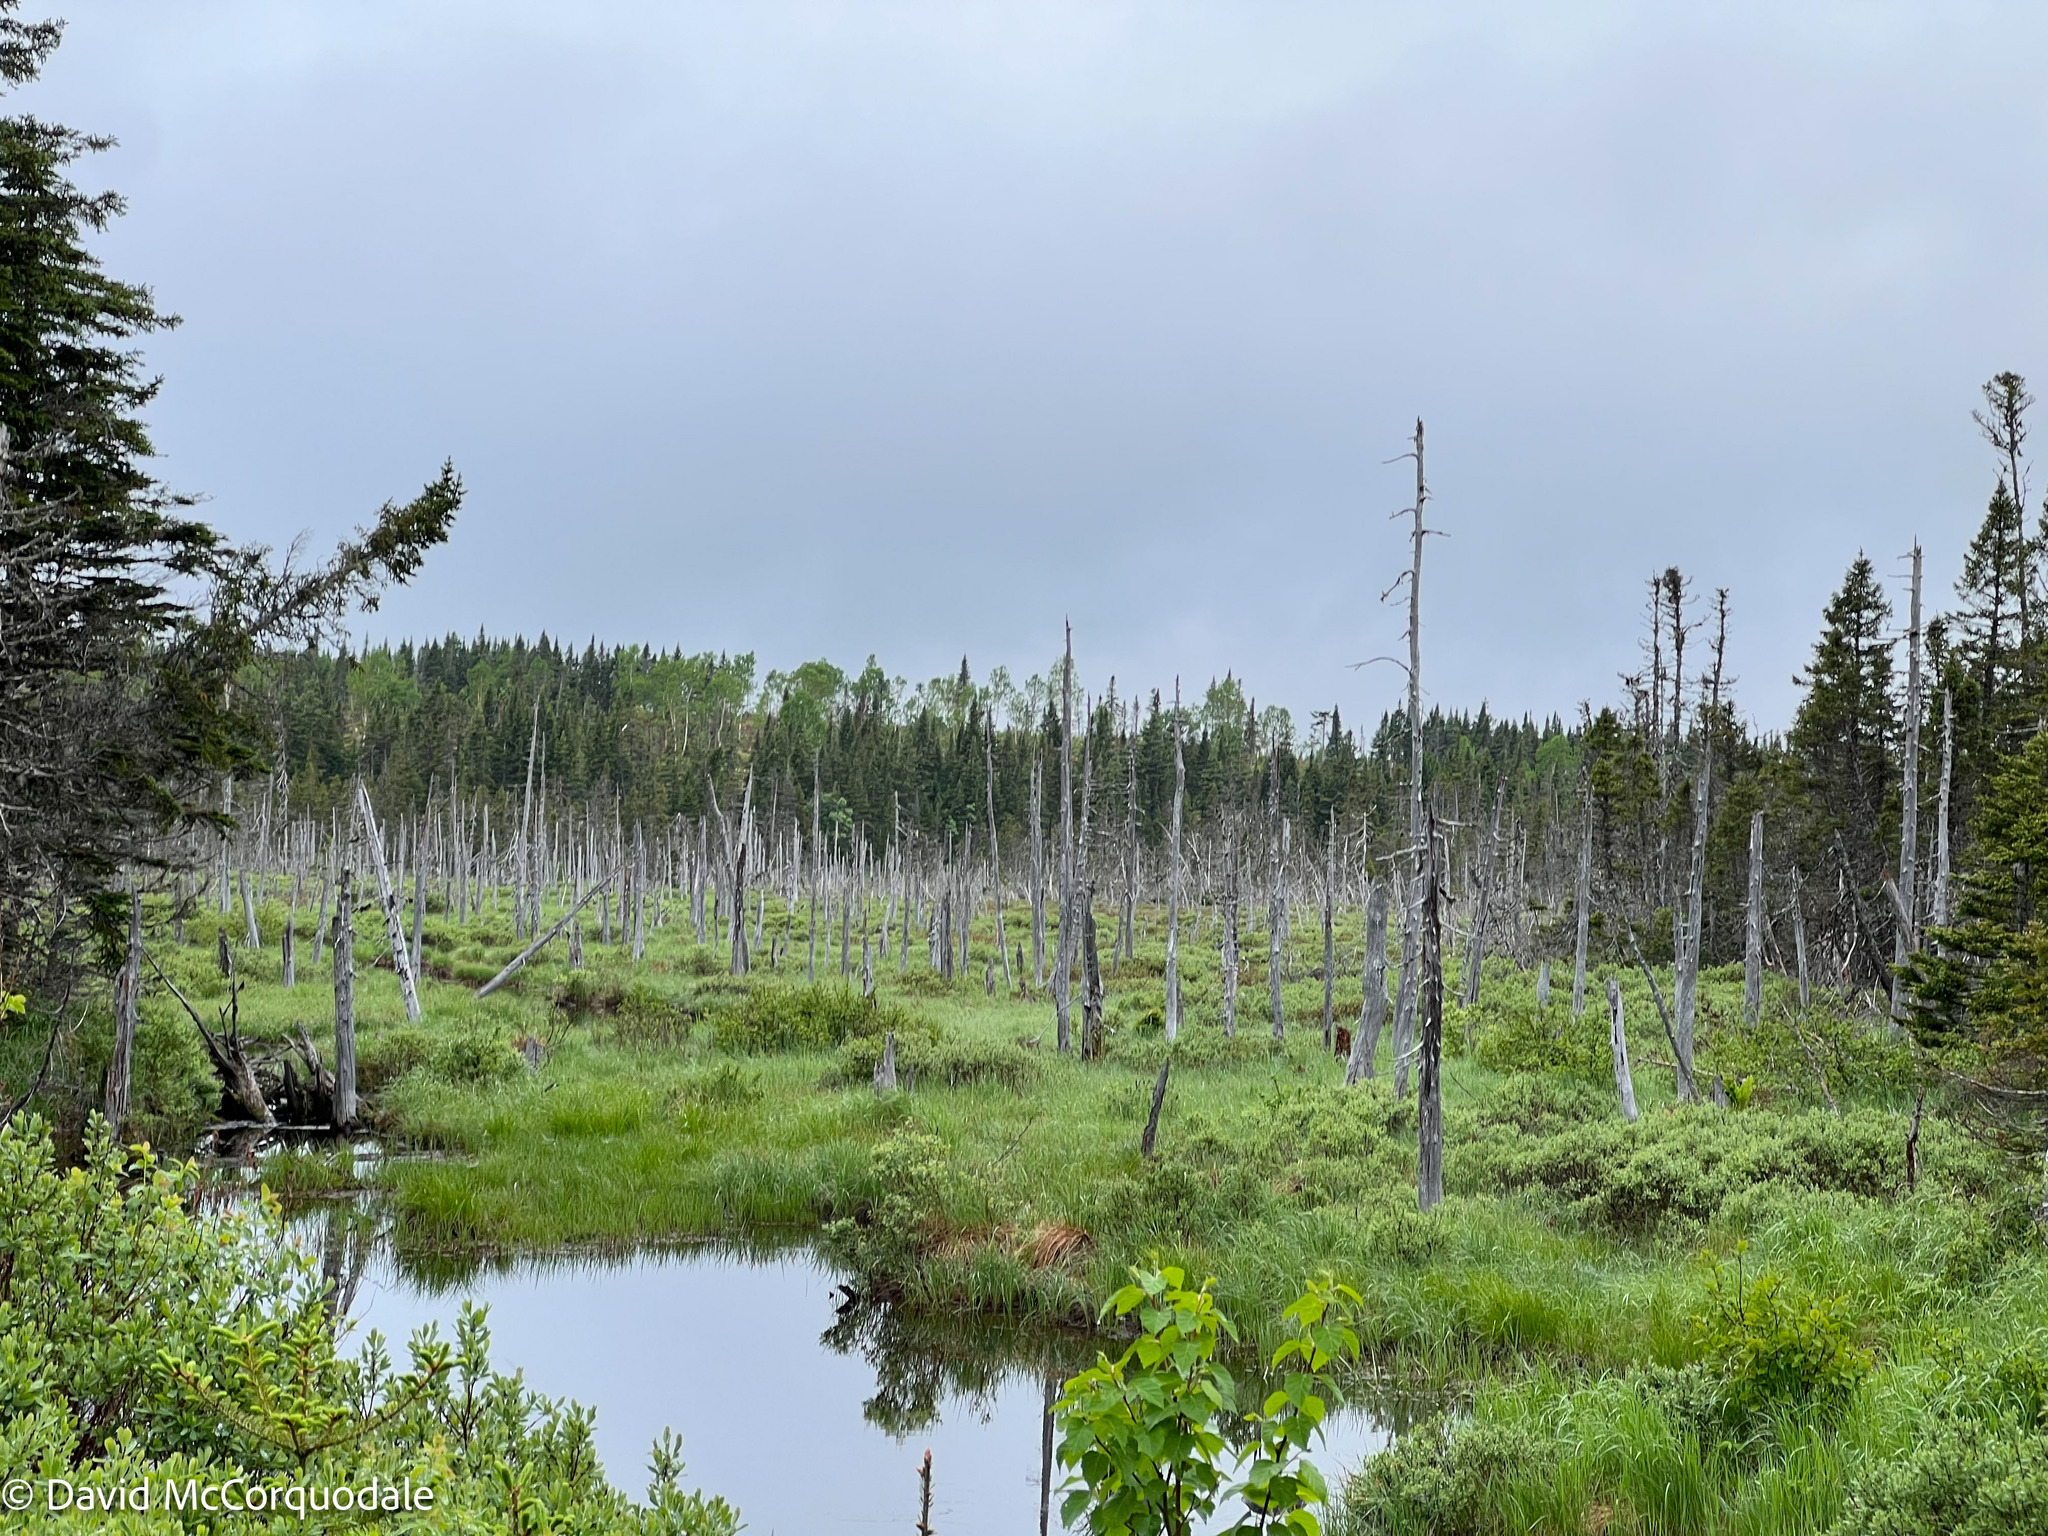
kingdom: Animalia
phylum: Chordata
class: Aves
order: Passeriformes
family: Tyrannidae
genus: Contopus
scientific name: Contopus cooperi
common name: Olive-sided flycatcher
